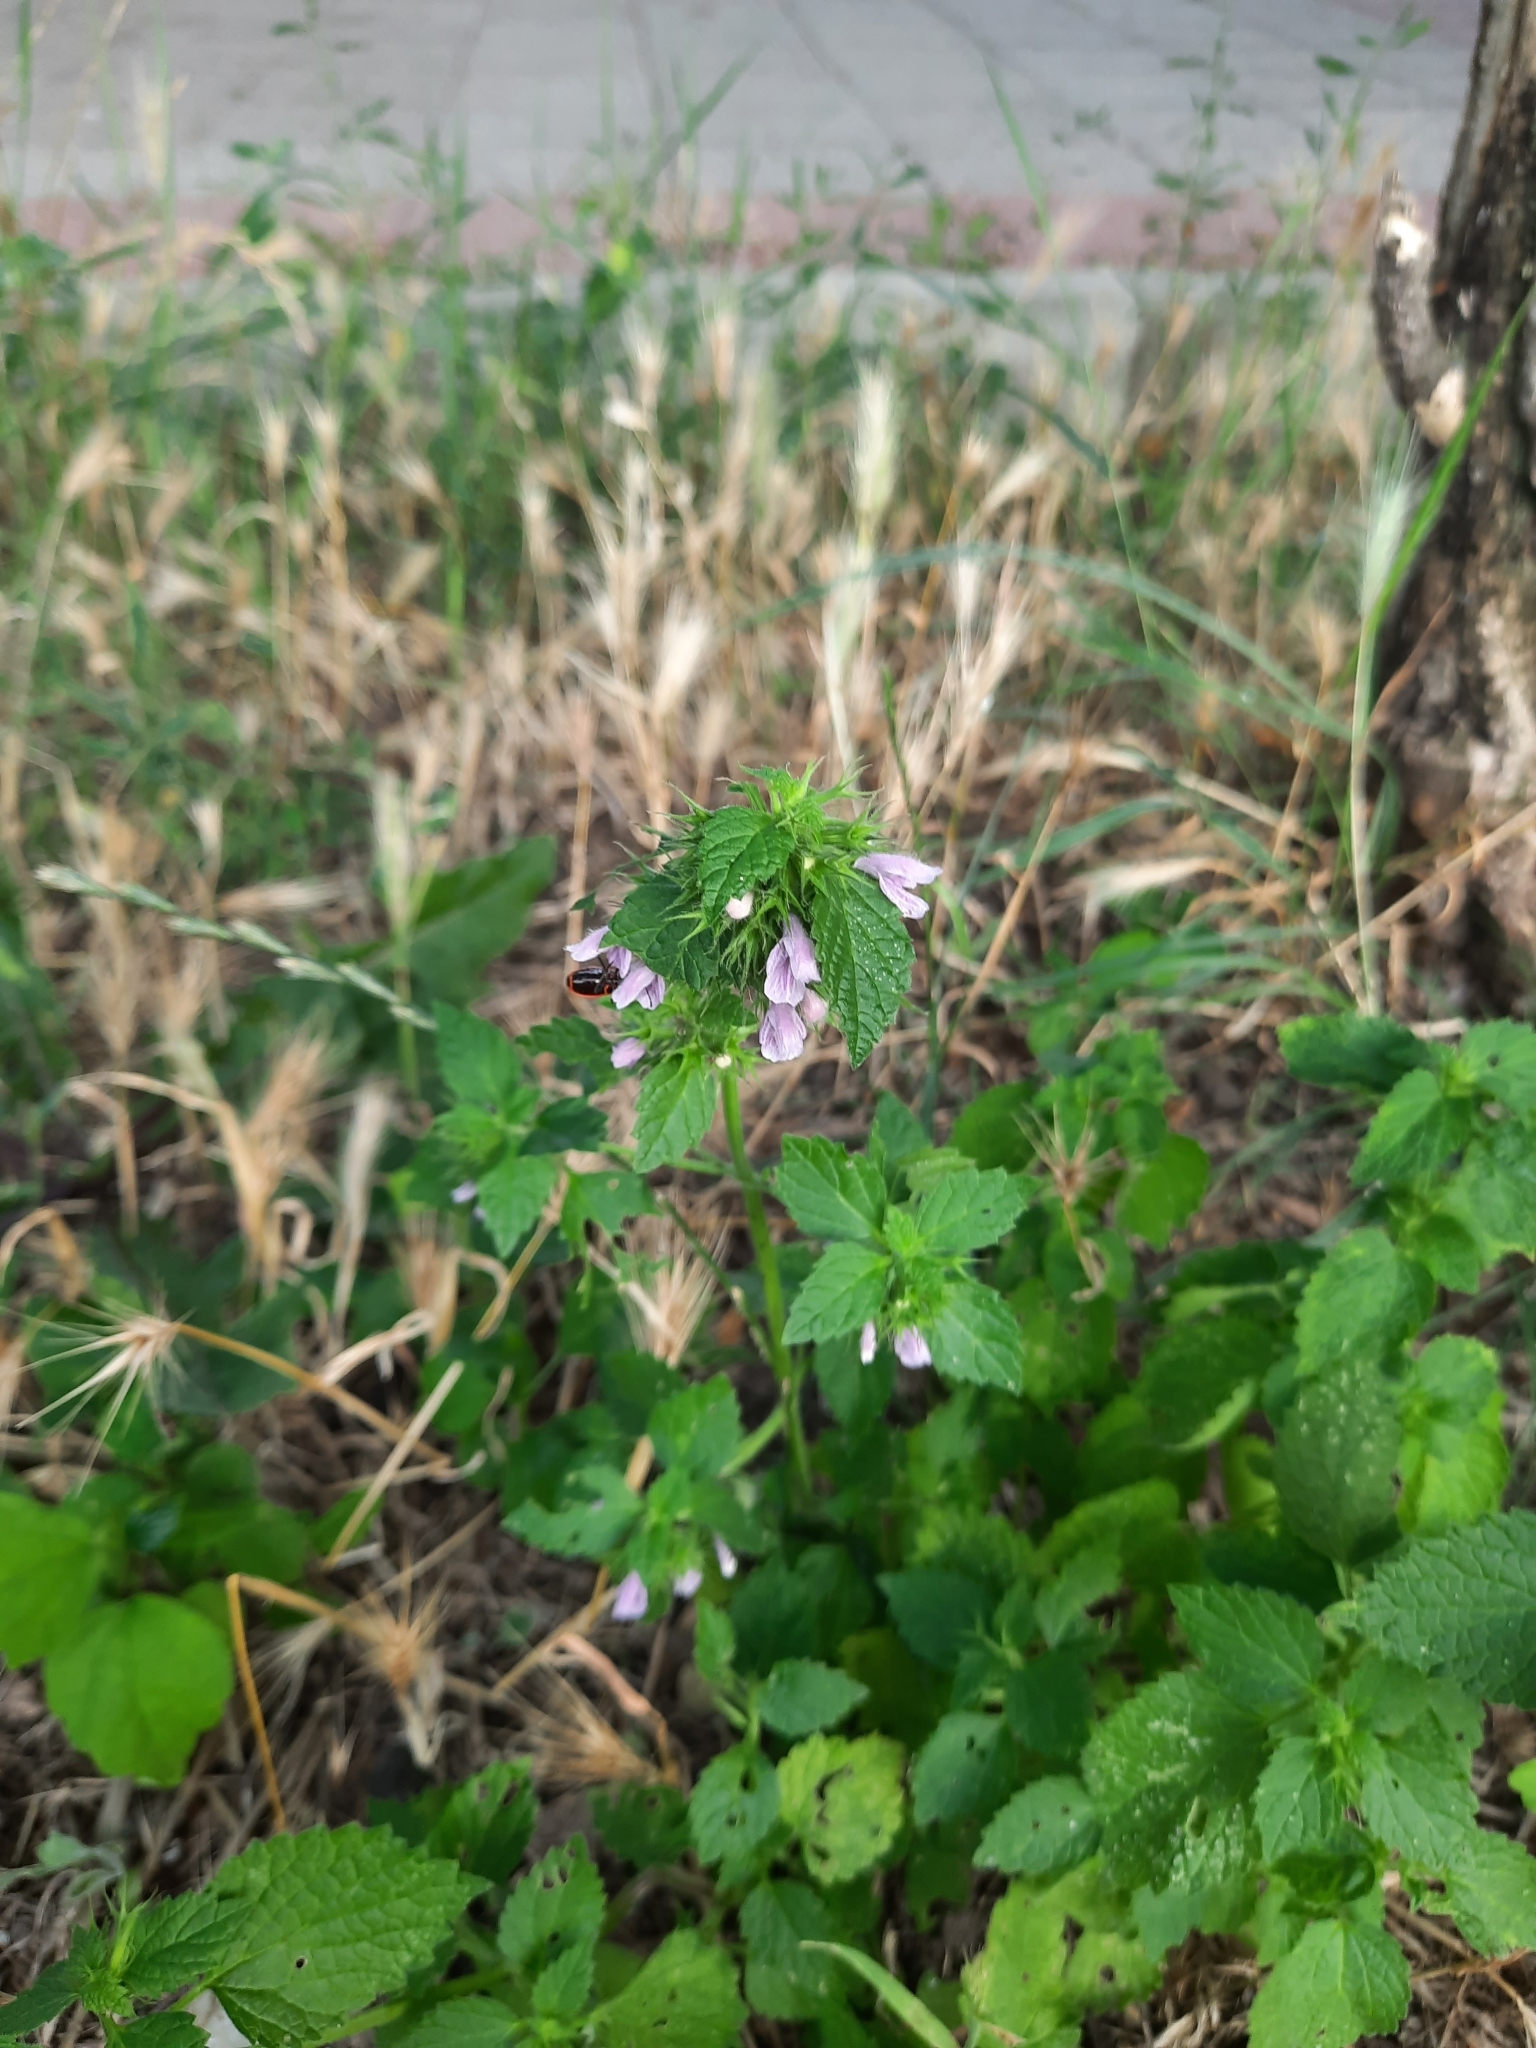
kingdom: Plantae
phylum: Tracheophyta
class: Magnoliopsida
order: Lamiales
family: Lamiaceae
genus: Ballota
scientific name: Ballota nigra
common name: Black horehound
